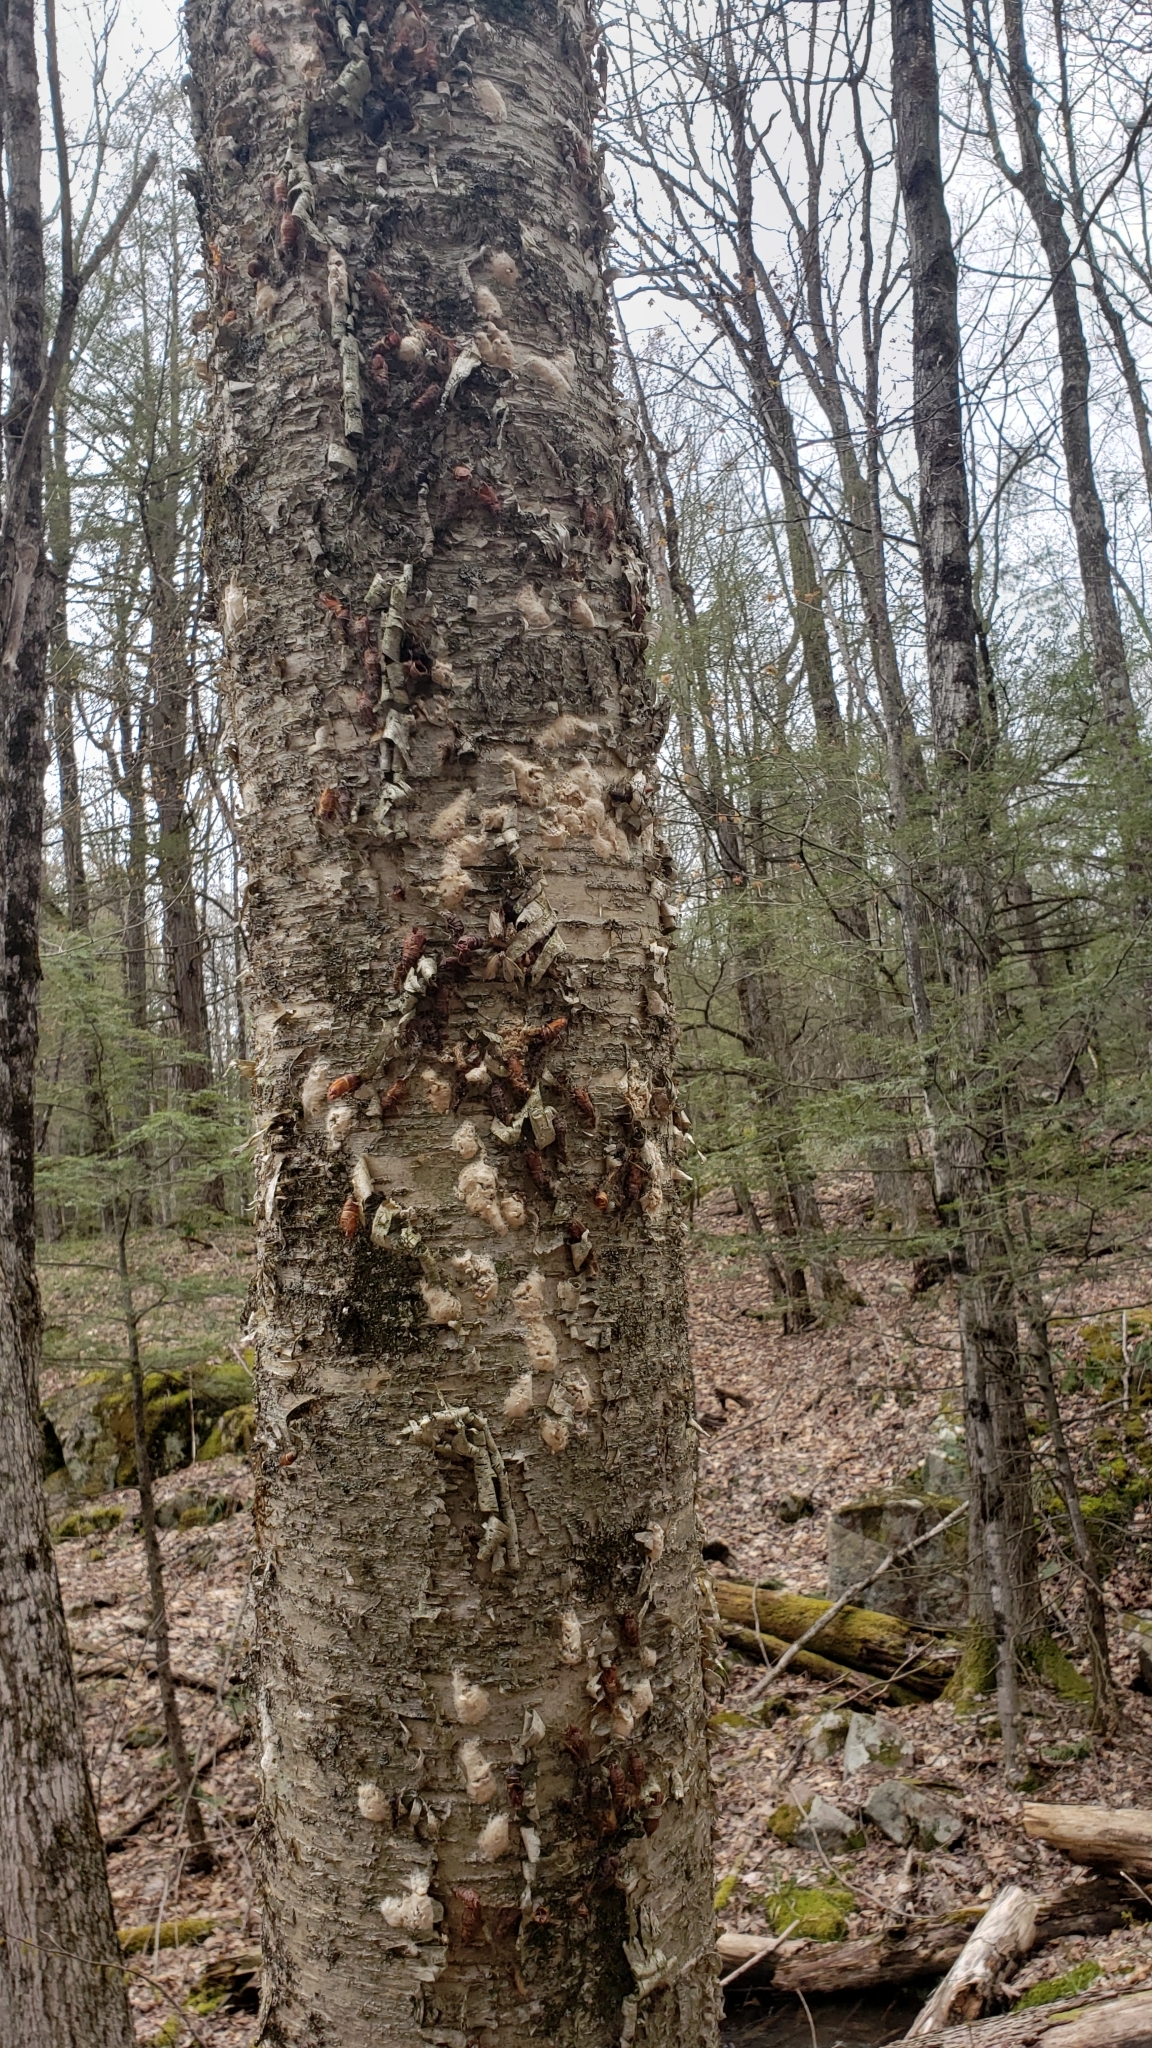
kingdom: Animalia
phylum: Arthropoda
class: Insecta
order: Lepidoptera
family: Erebidae
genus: Lymantria
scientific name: Lymantria dispar
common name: Gypsy moth
